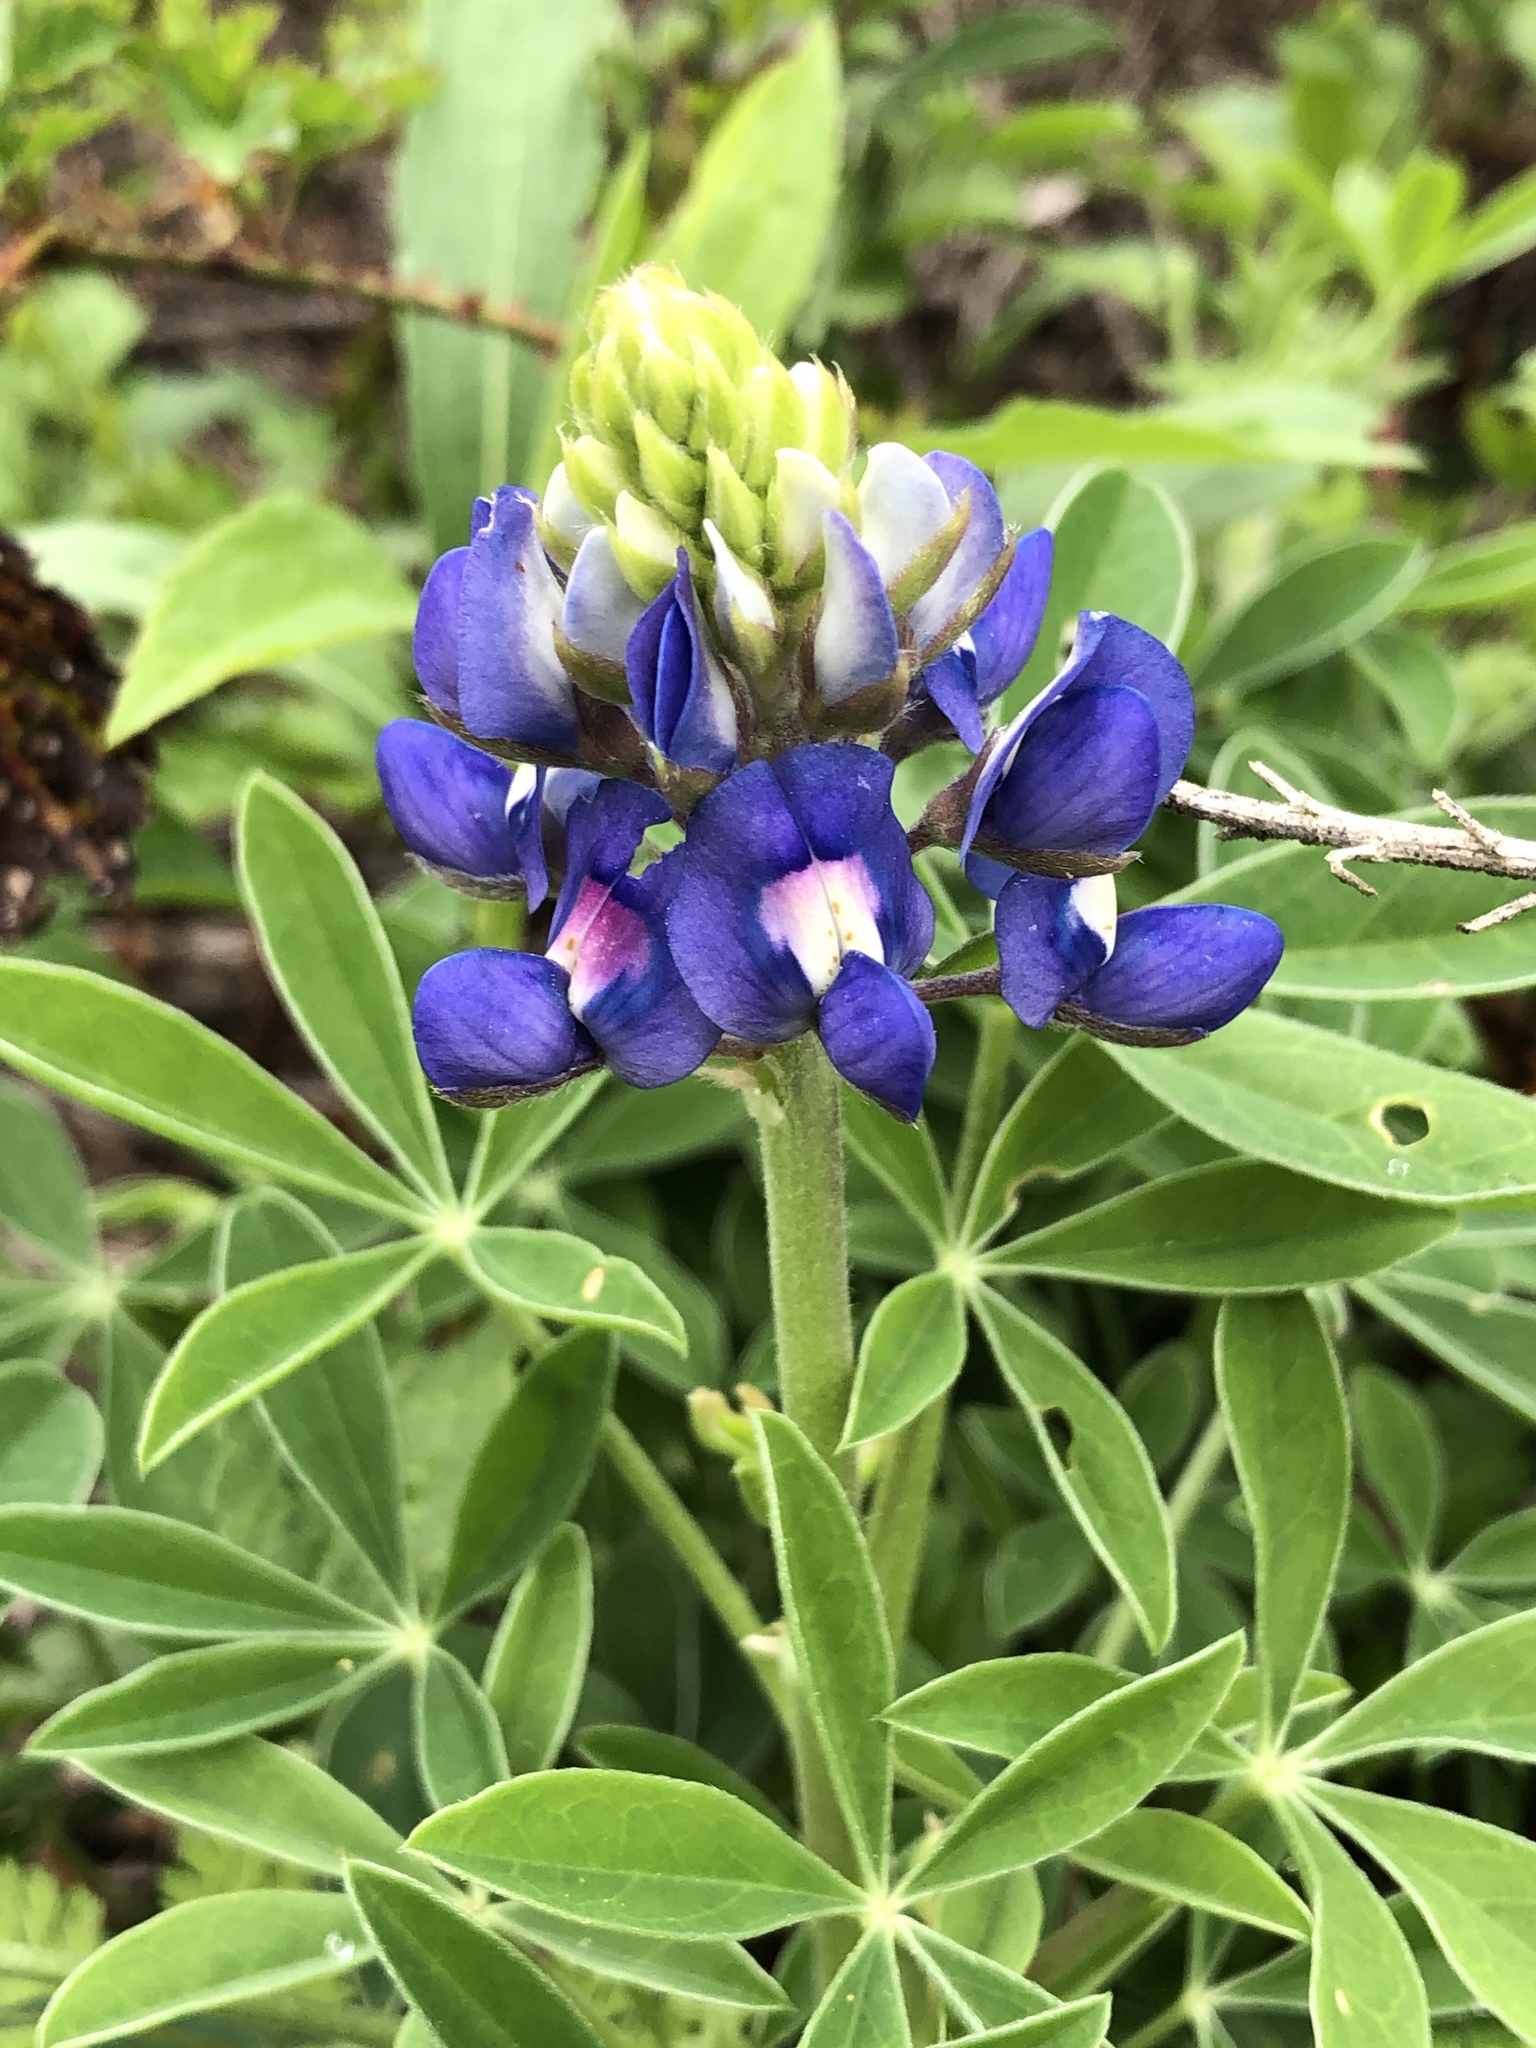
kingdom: Plantae
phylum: Tracheophyta
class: Magnoliopsida
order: Fabales
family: Fabaceae
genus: Lupinus
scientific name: Lupinus texensis
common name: Texas bluebonnet
